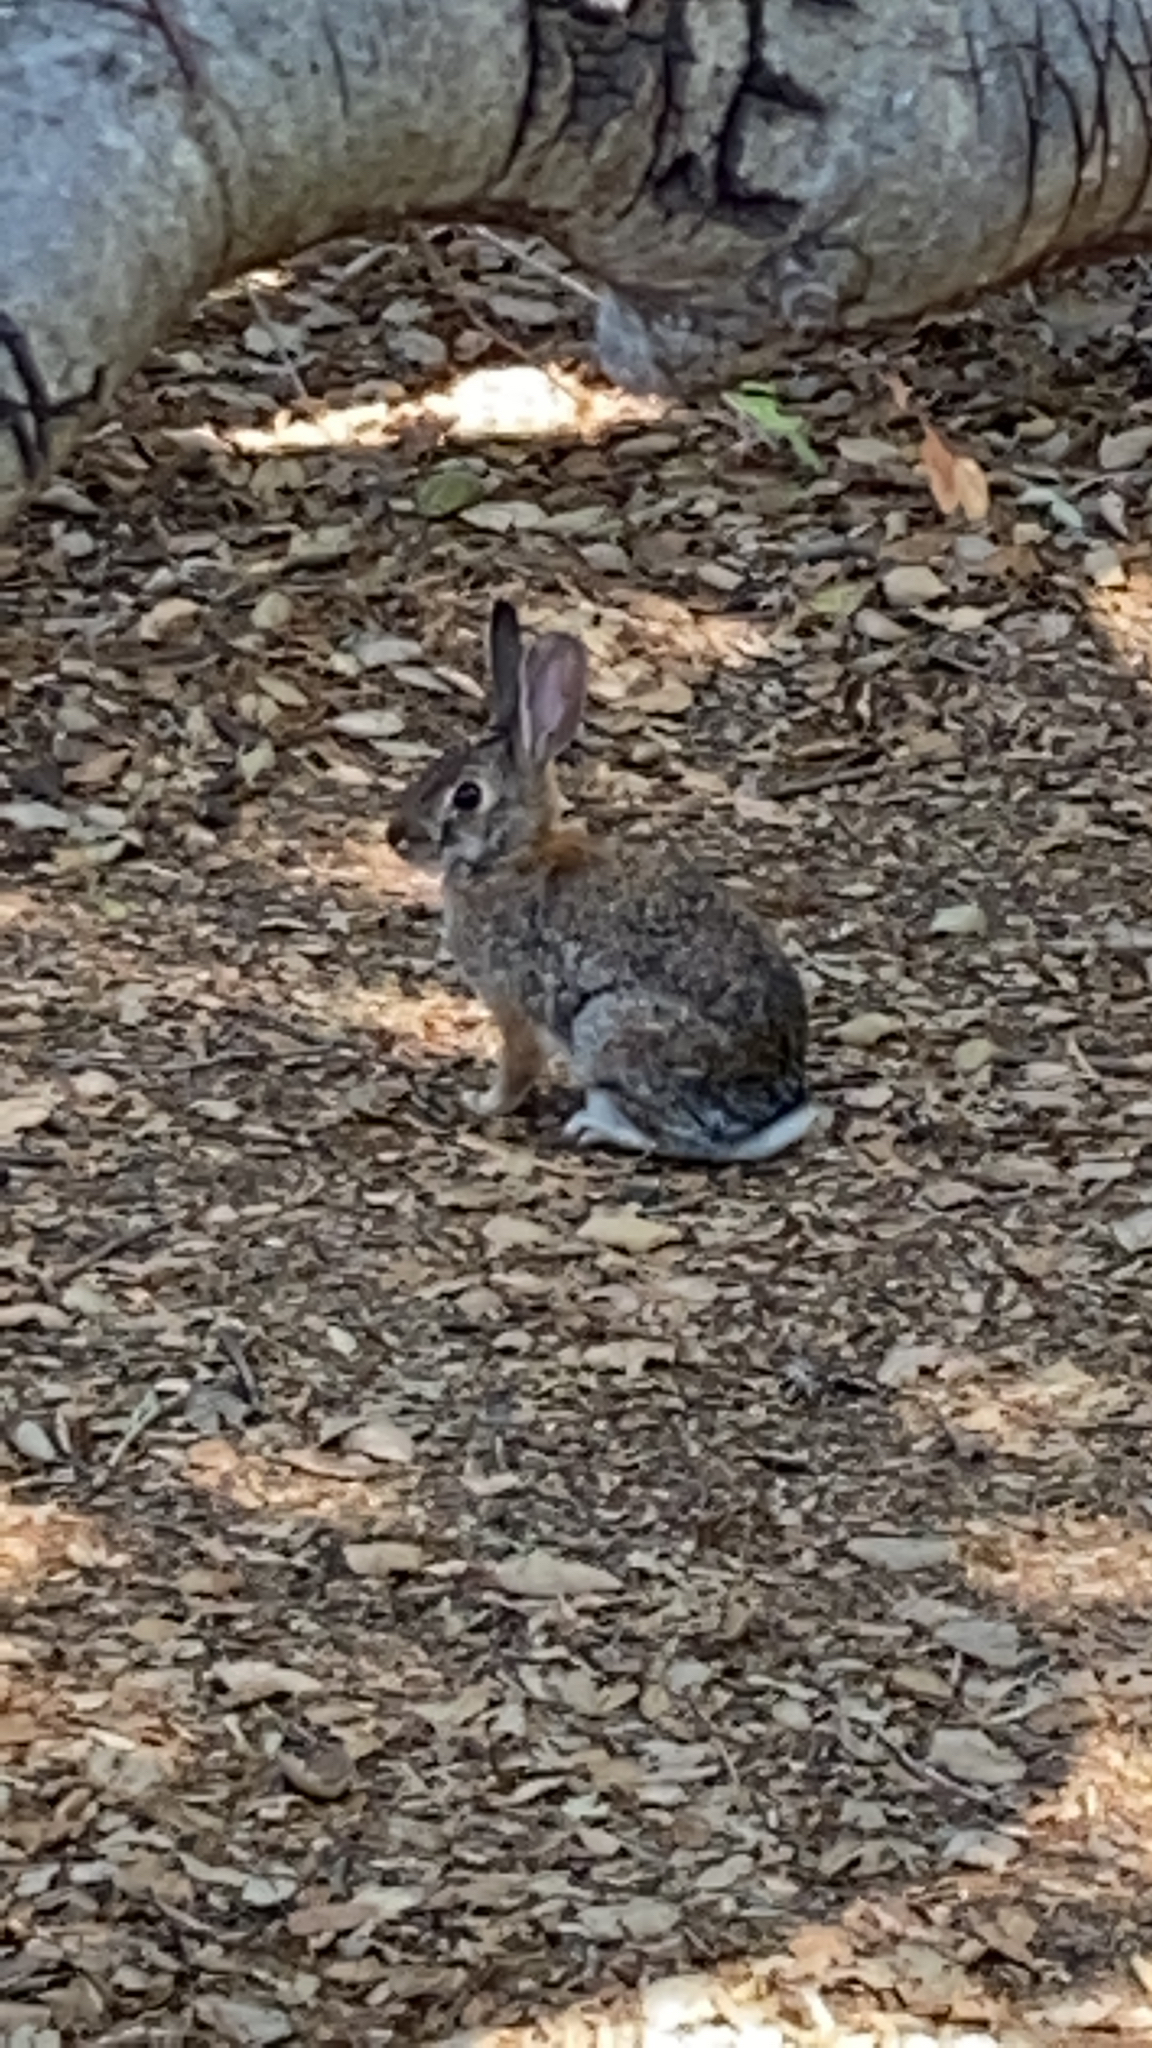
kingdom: Animalia
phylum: Chordata
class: Mammalia
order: Lagomorpha
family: Leporidae
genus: Sylvilagus
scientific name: Sylvilagus audubonii
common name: Desert cottontail
